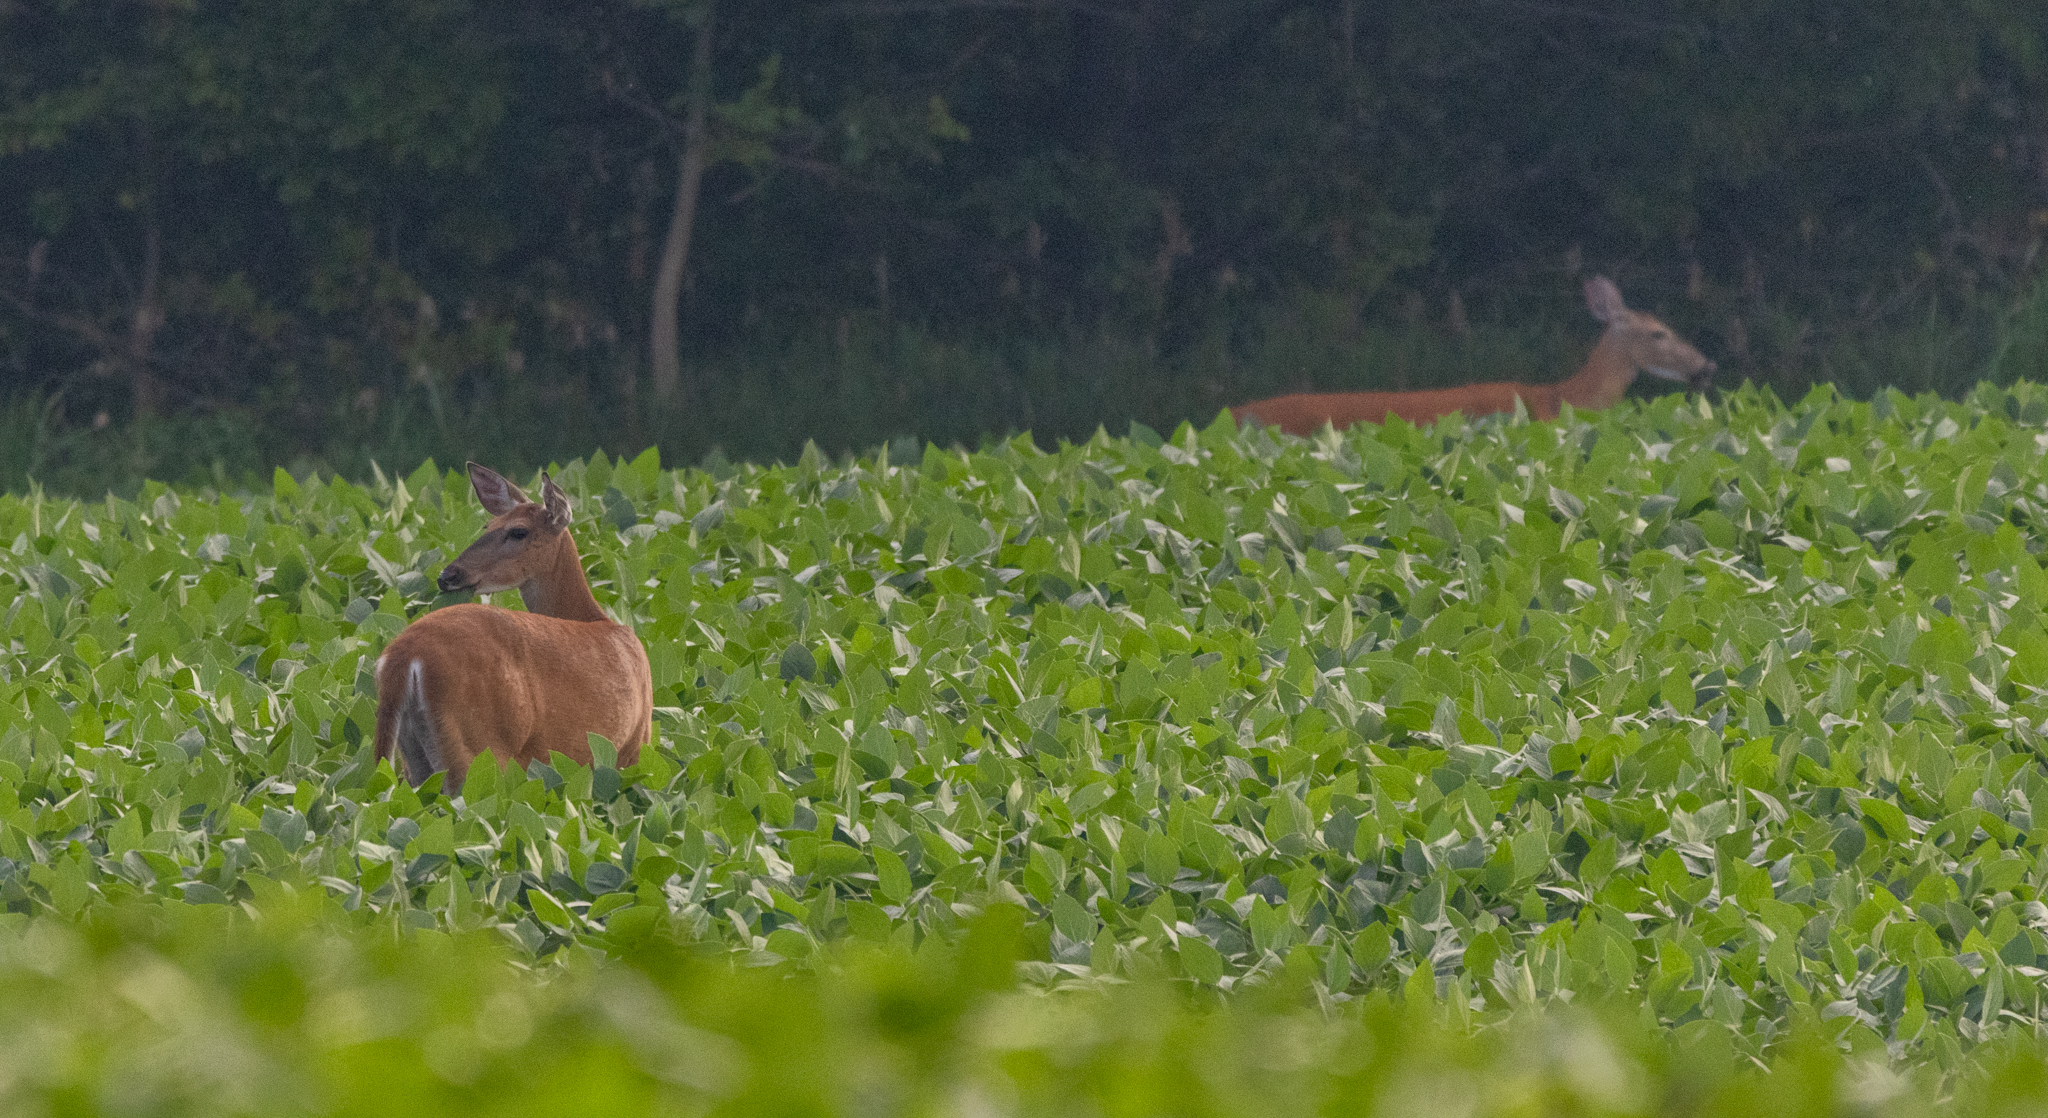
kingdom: Animalia
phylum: Chordata
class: Mammalia
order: Artiodactyla
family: Cervidae
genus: Odocoileus
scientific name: Odocoileus virginianus
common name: White-tailed deer
